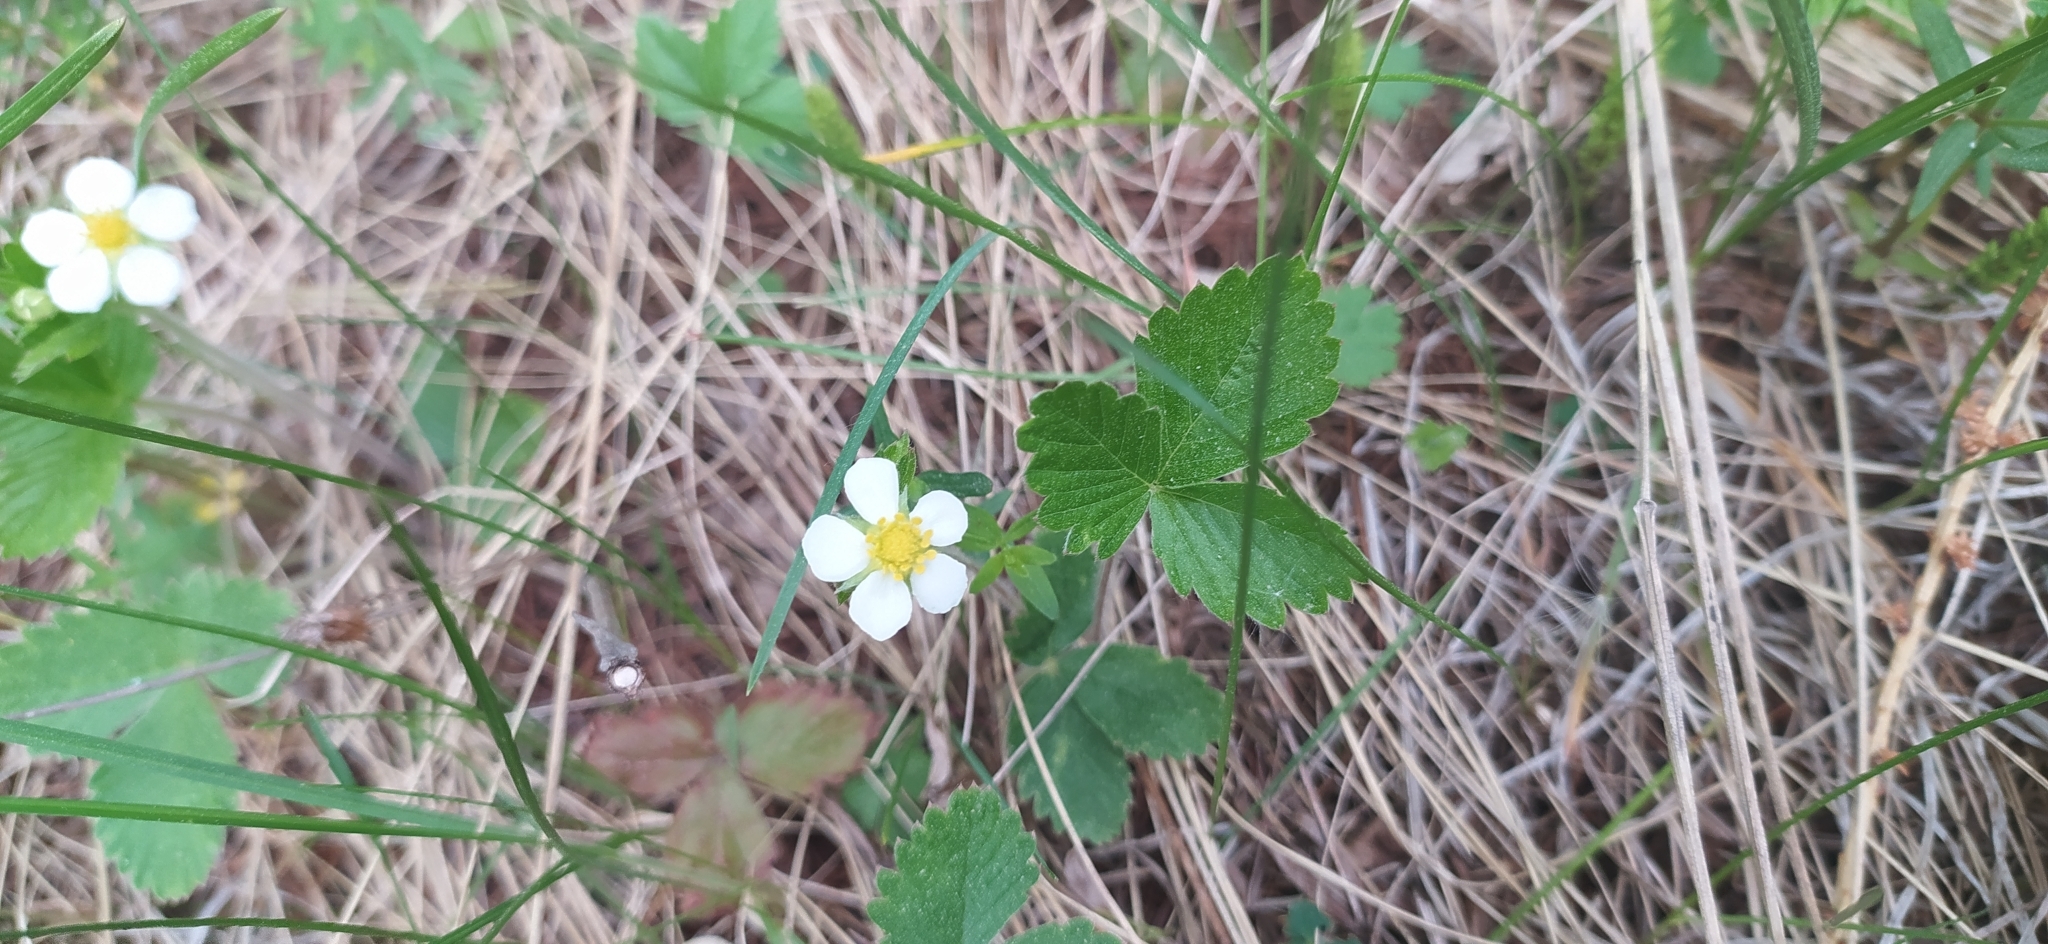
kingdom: Plantae
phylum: Tracheophyta
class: Magnoliopsida
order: Rosales
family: Rosaceae
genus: Fragaria
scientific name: Fragaria vesca
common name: Wild strawberry
